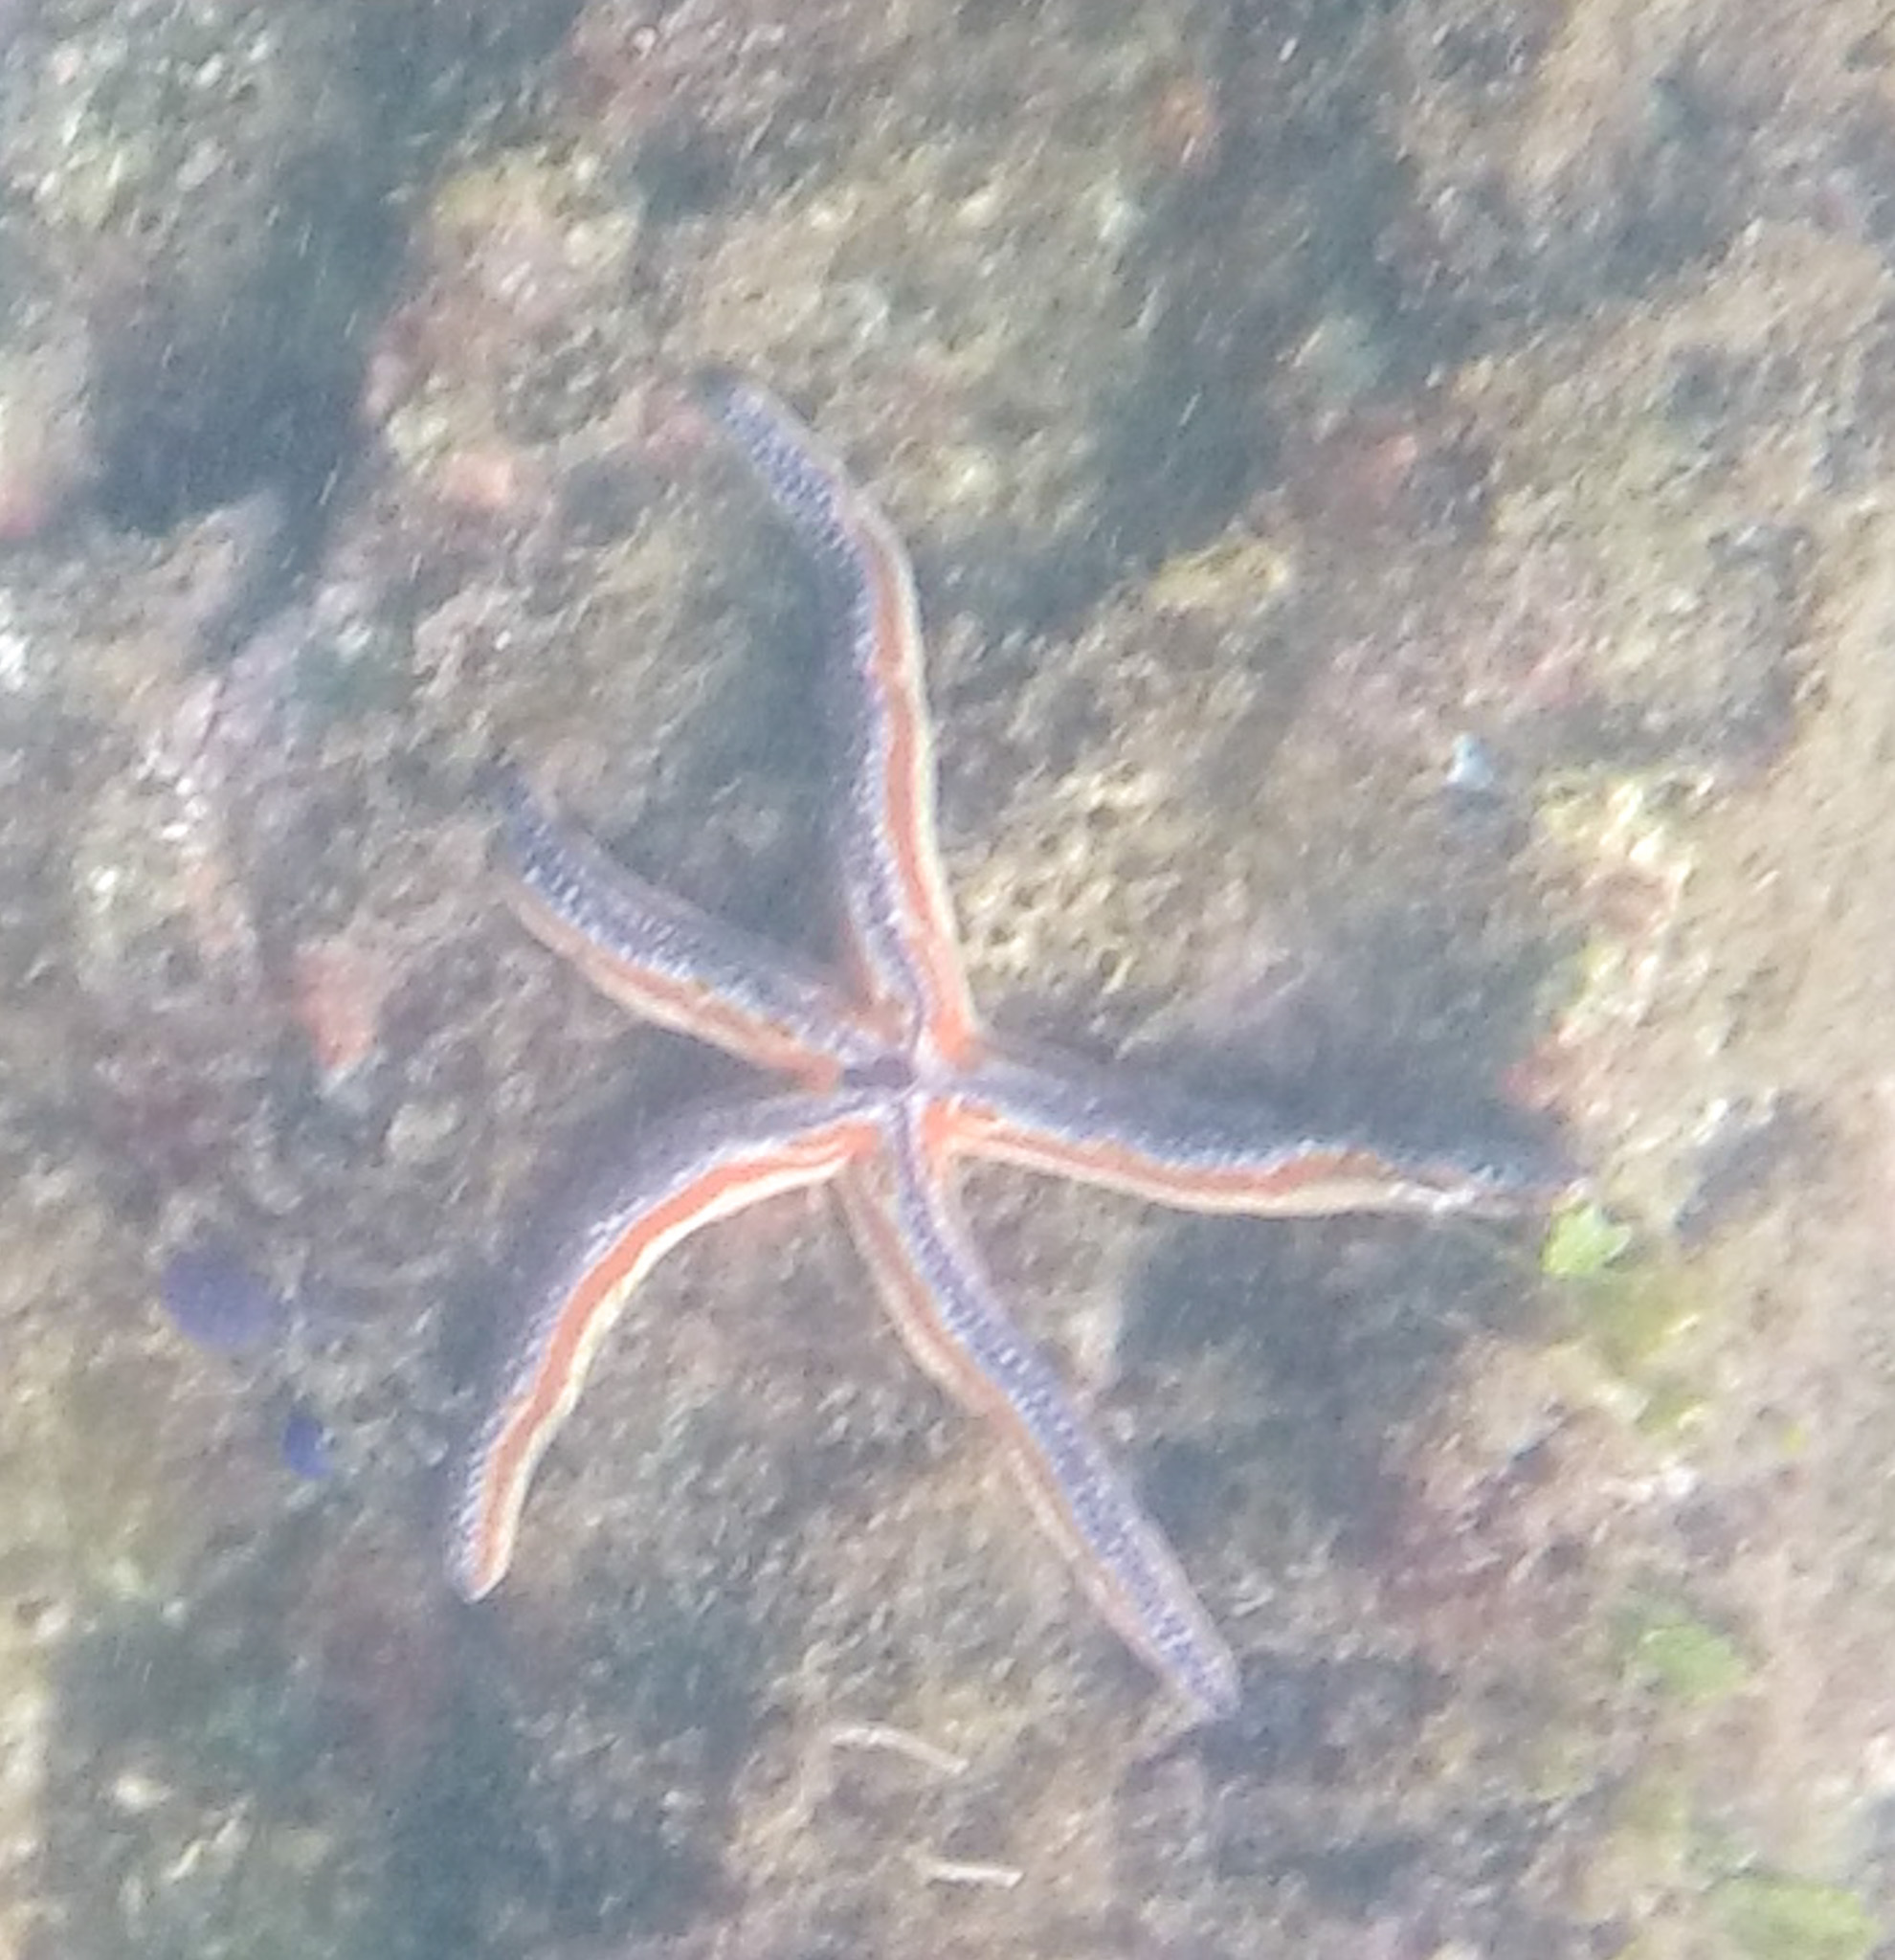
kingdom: Animalia
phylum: Echinodermata
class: Asteroidea
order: Valvatida
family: Ophidiasteridae
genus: Phataria
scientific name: Phataria unifascialis
